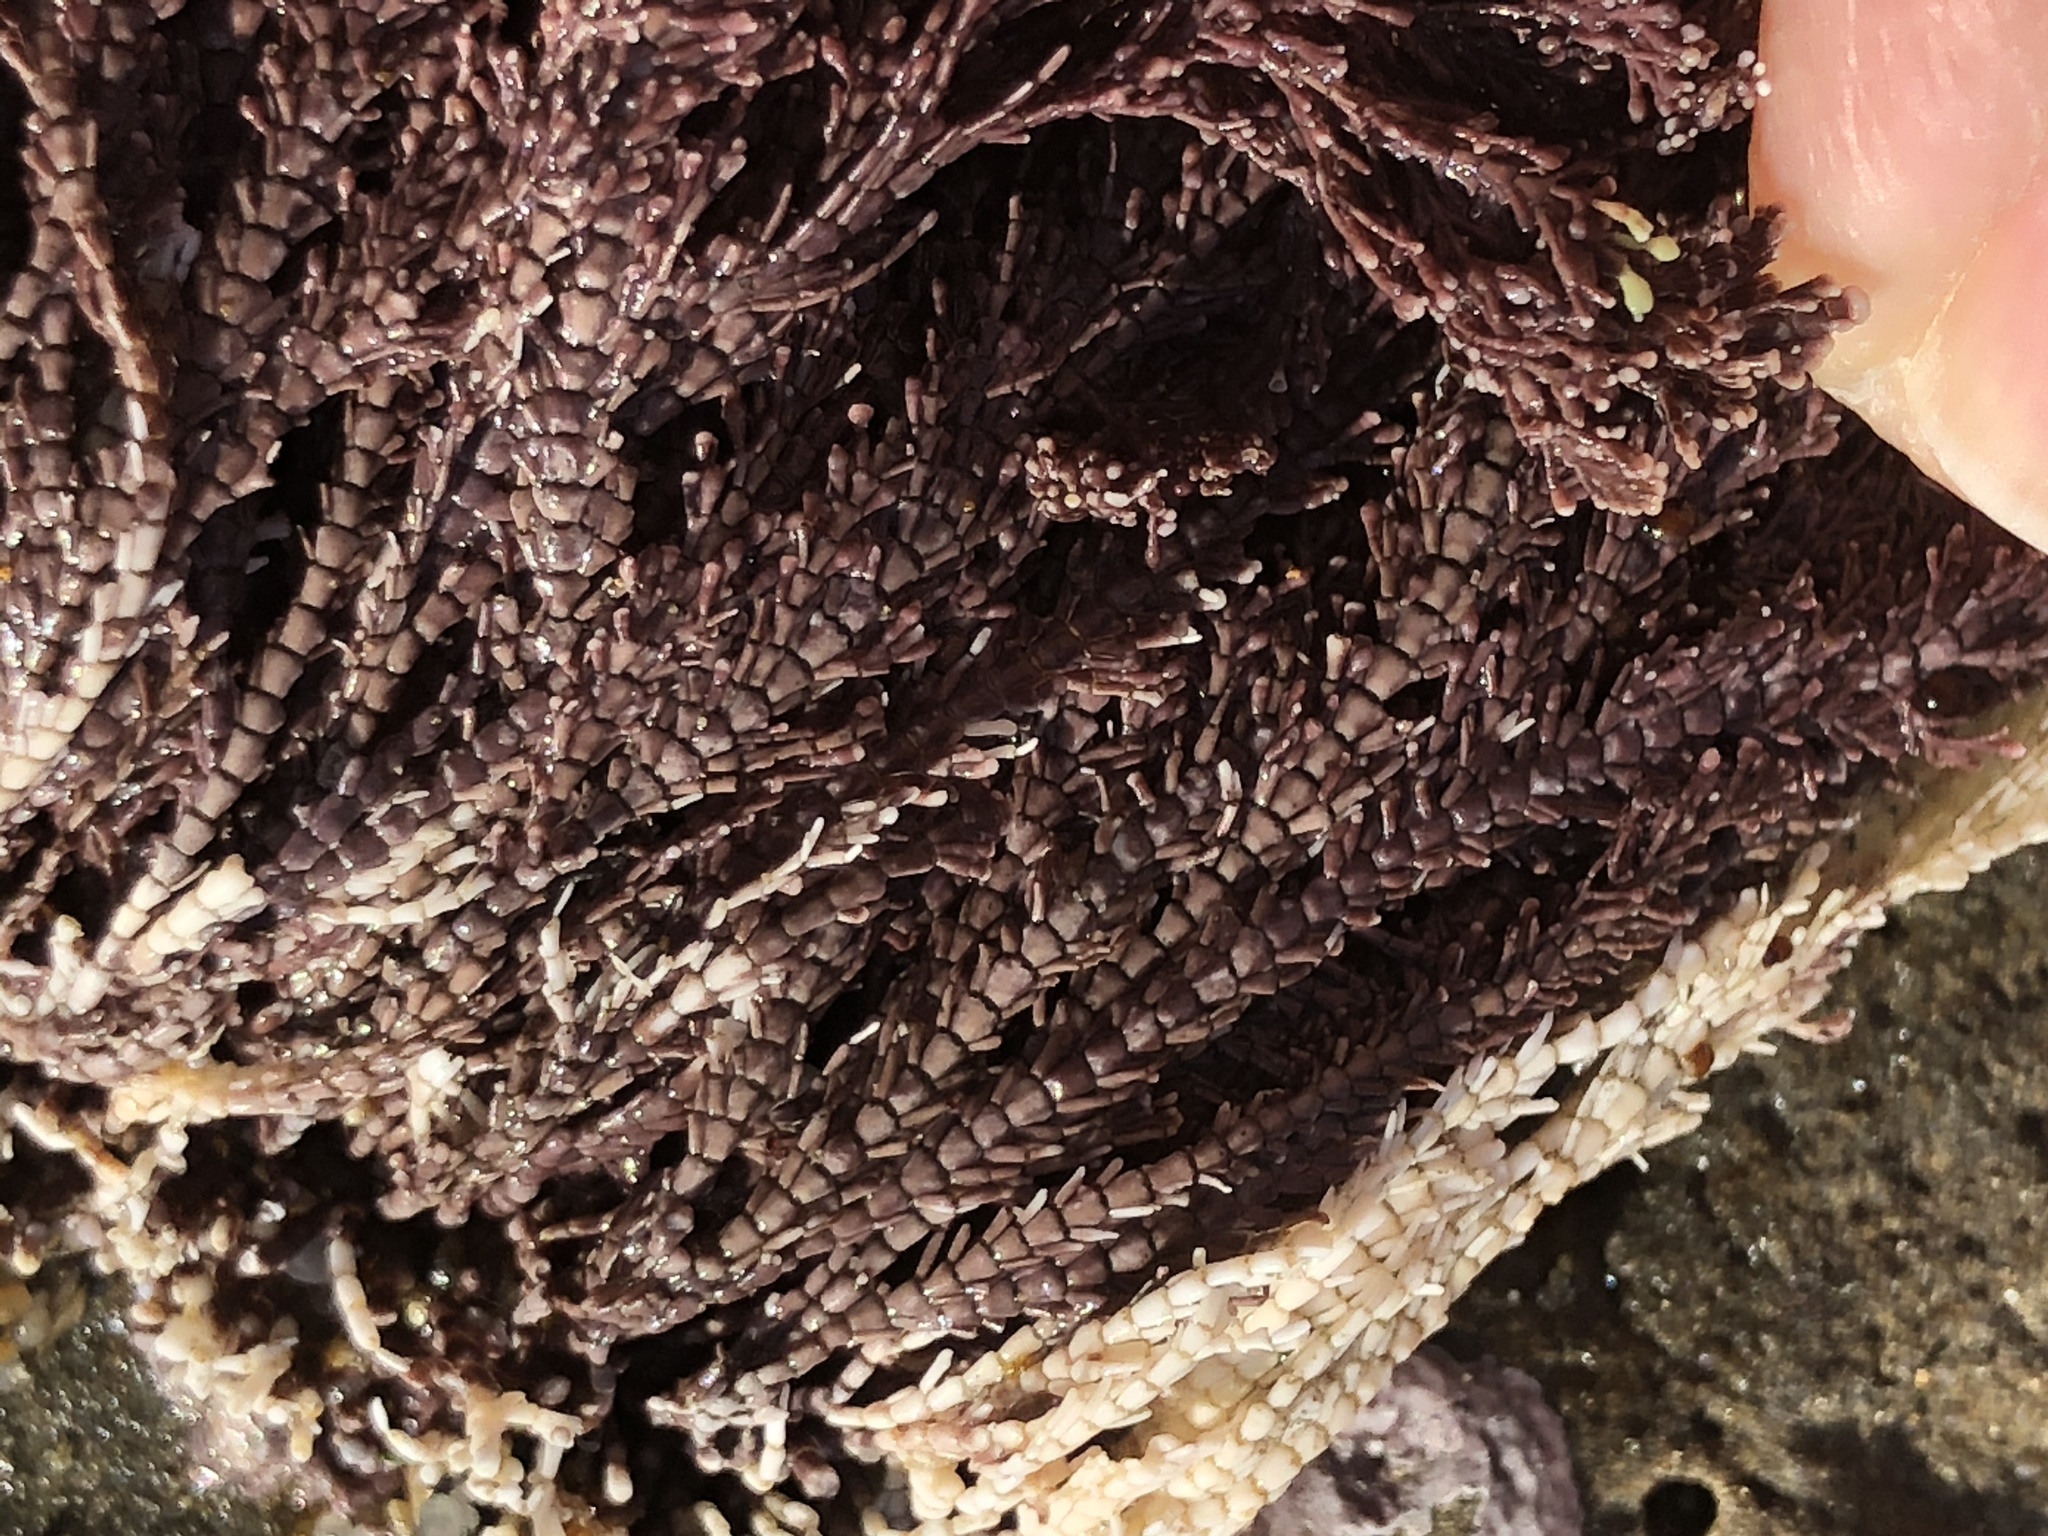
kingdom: Plantae
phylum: Rhodophyta
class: Florideophyceae
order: Corallinales
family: Corallinaceae
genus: Corallina
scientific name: Corallina vancouveriensis
